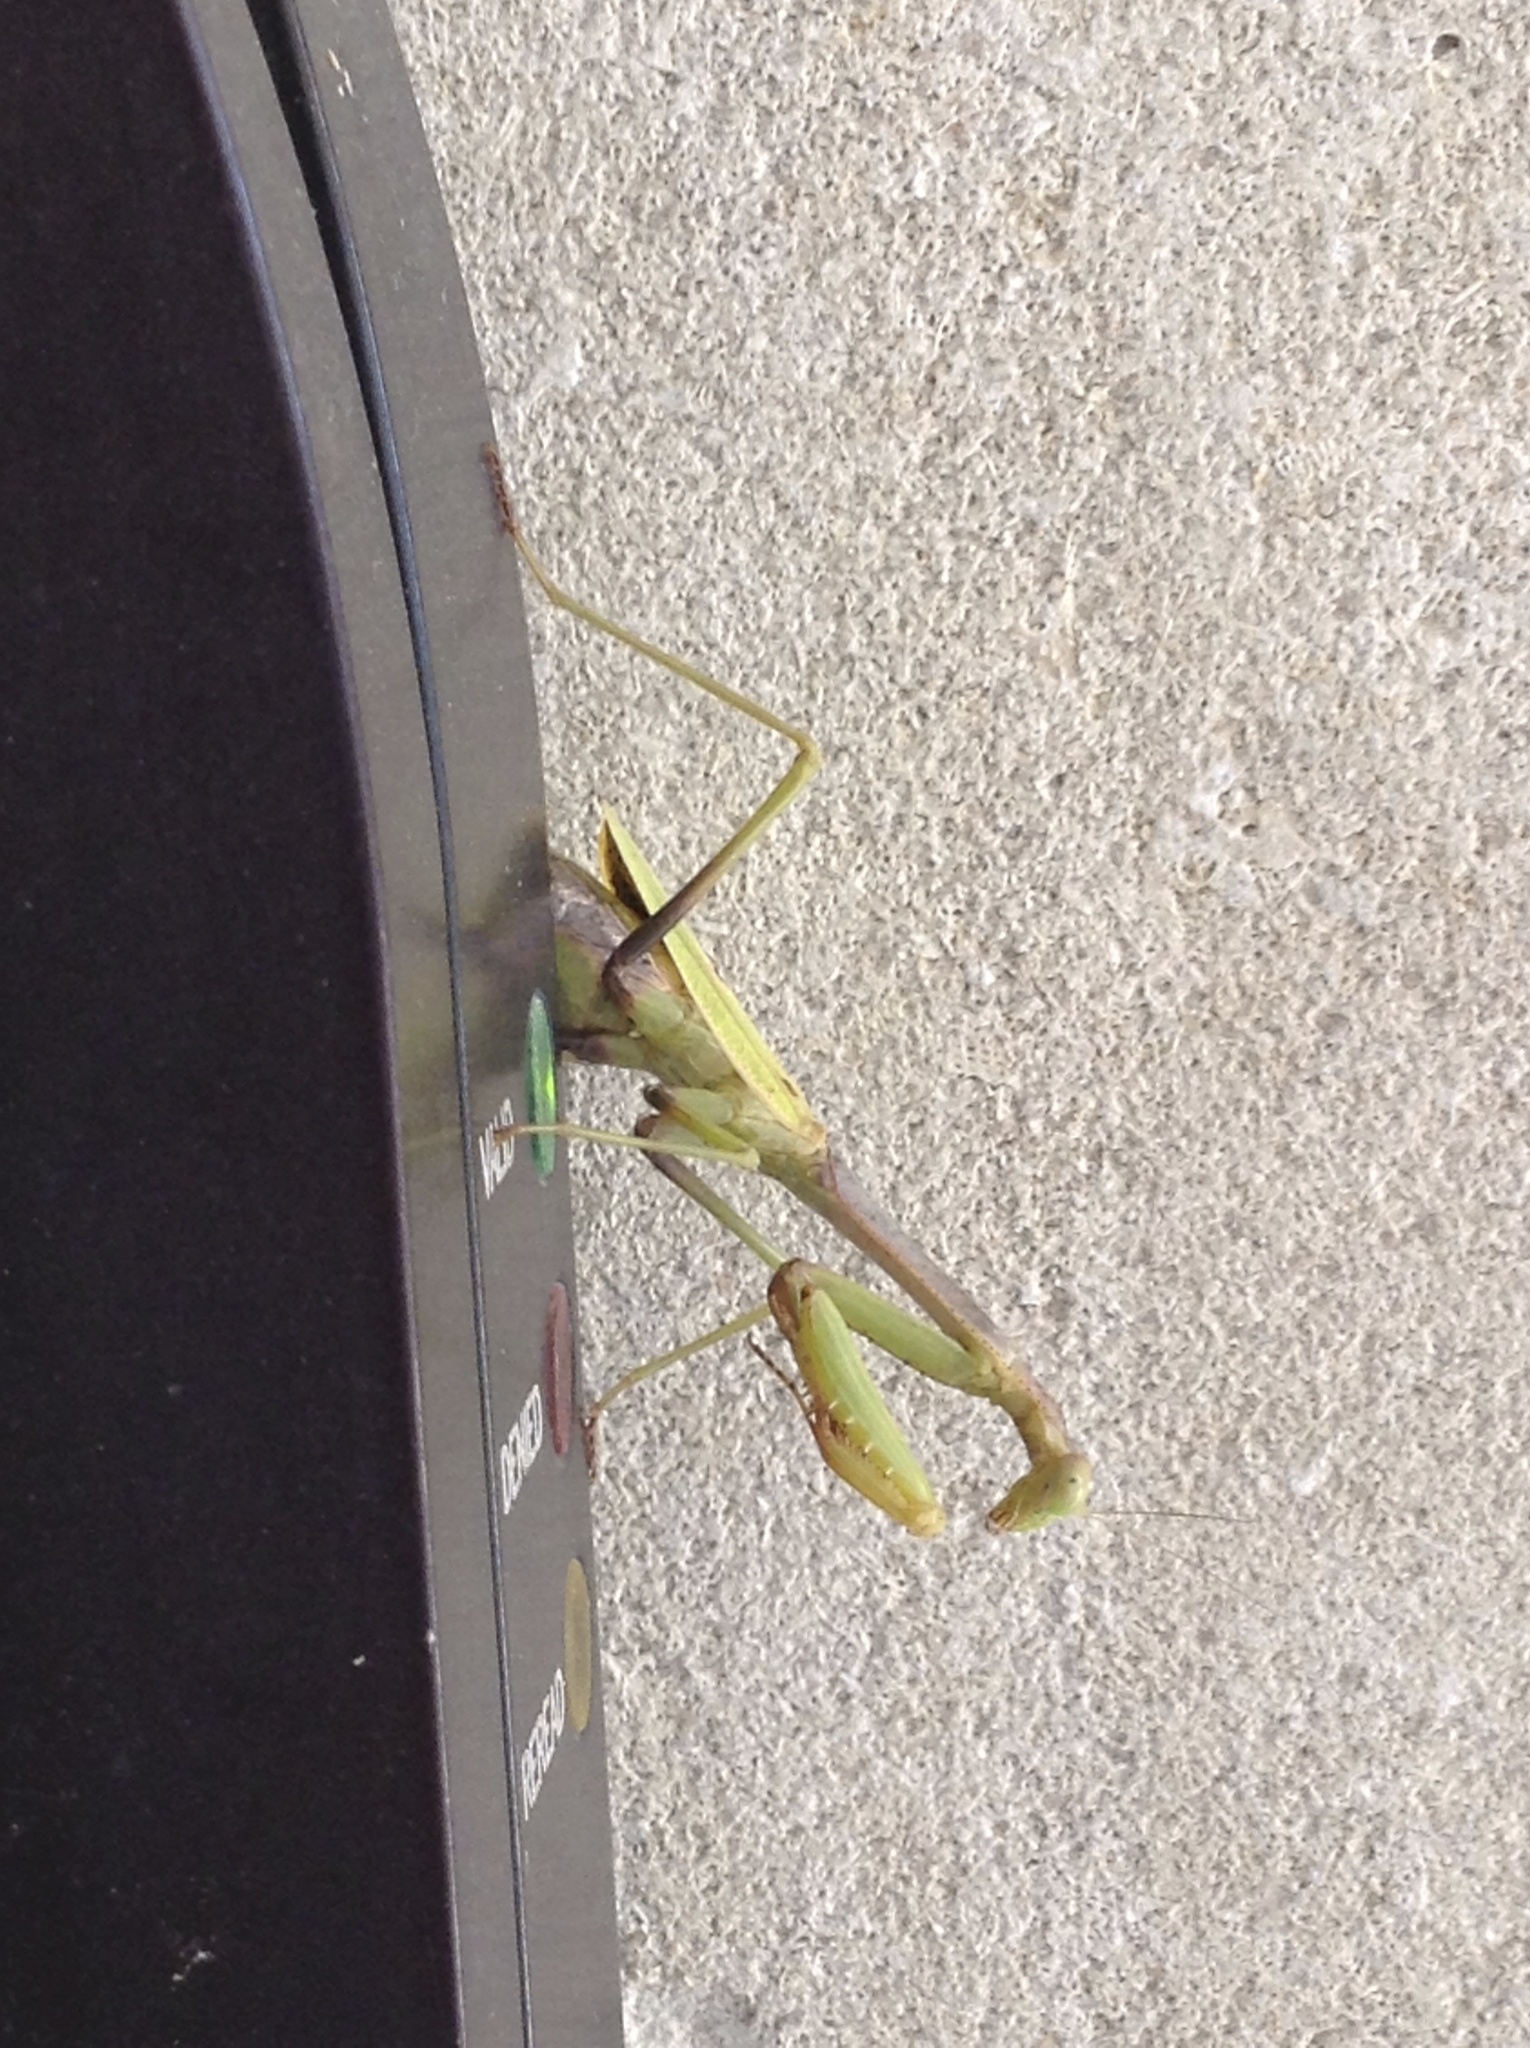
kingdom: Animalia
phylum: Arthropoda
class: Insecta
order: Mantodea
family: Mantidae
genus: Stagmomantis
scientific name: Stagmomantis carolina
